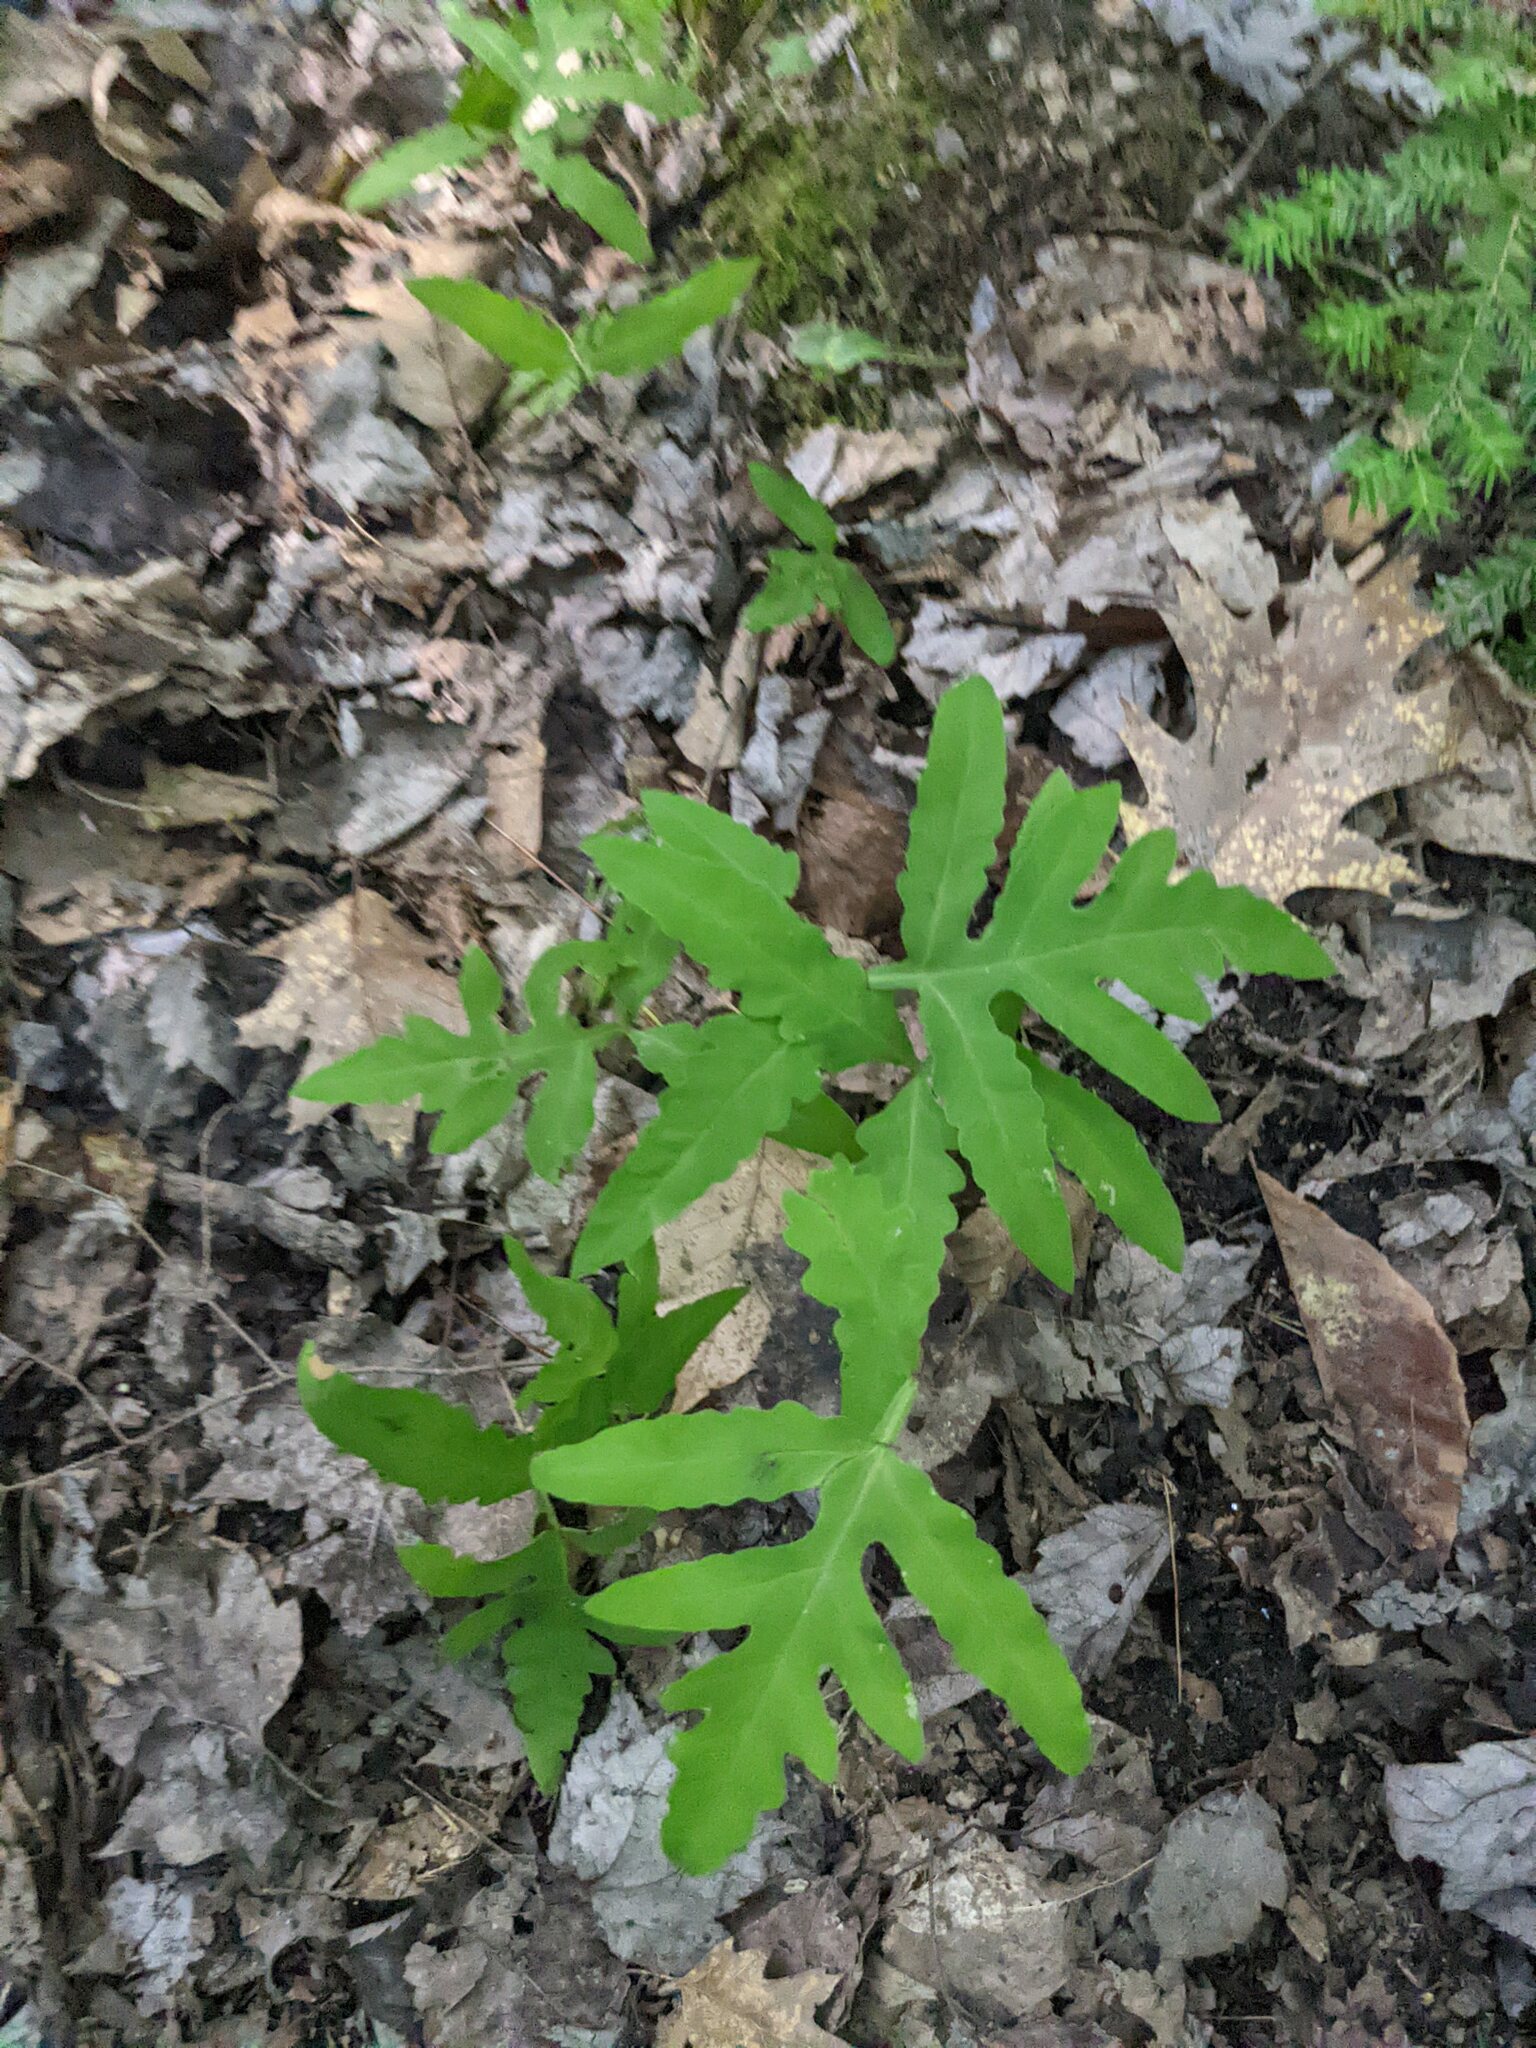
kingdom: Plantae
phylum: Tracheophyta
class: Polypodiopsida
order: Polypodiales
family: Onocleaceae
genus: Onoclea
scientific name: Onoclea sensibilis
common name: Sensitive fern
